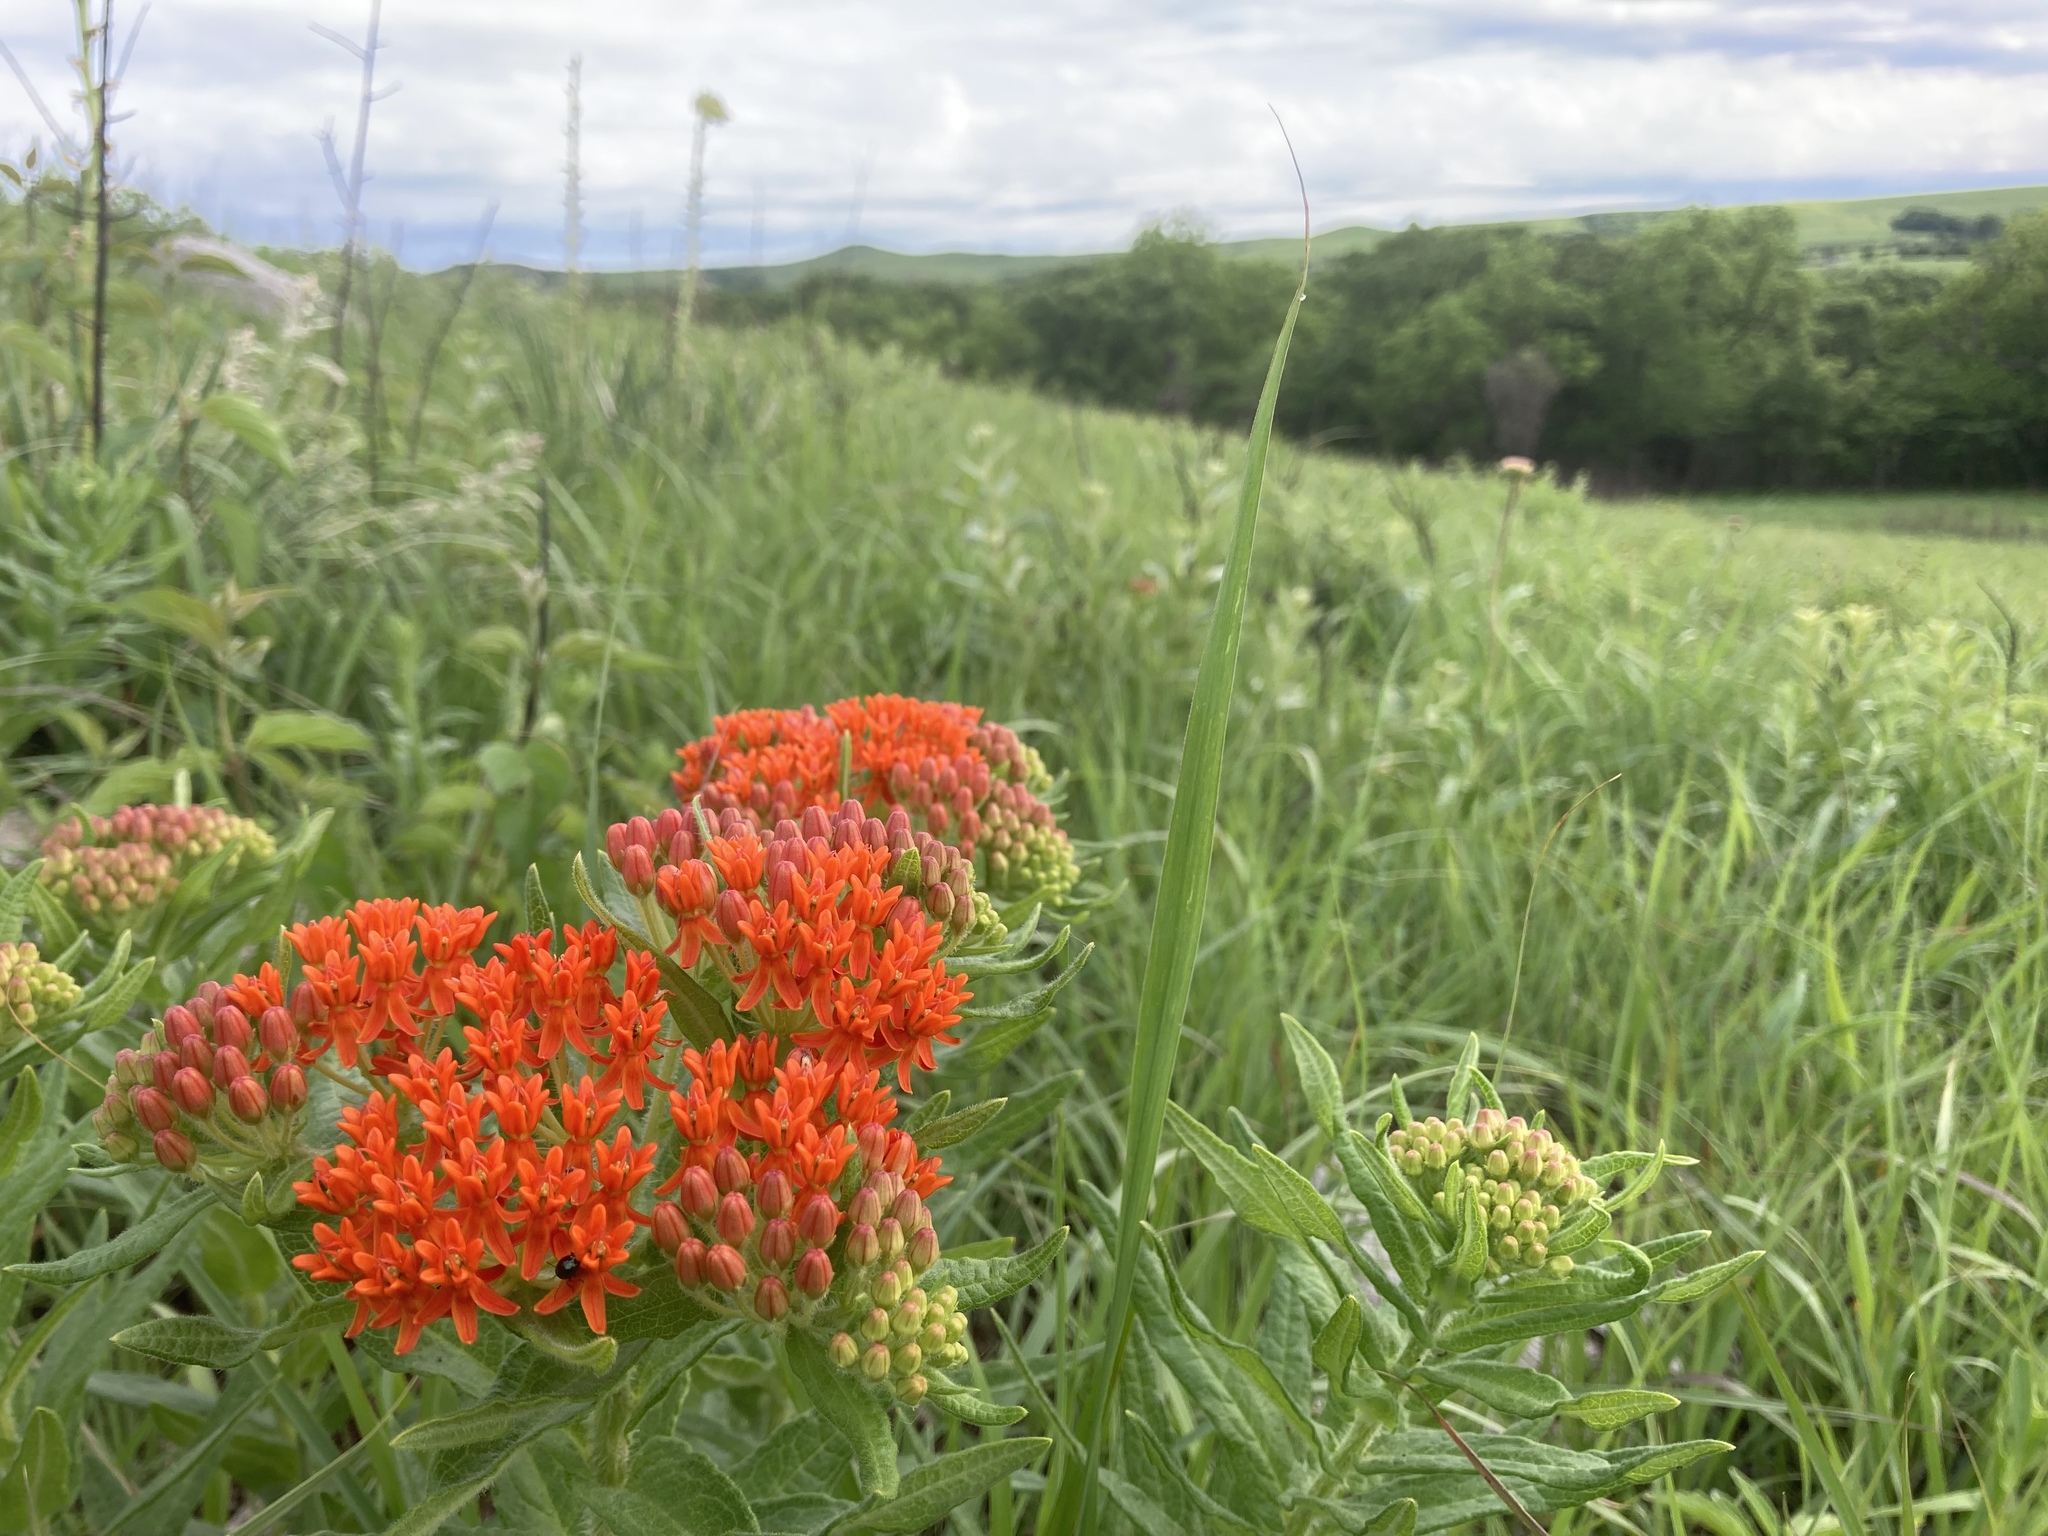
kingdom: Plantae
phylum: Tracheophyta
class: Magnoliopsida
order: Gentianales
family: Apocynaceae
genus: Asclepias
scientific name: Asclepias tuberosa
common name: Butterfly milkweed
